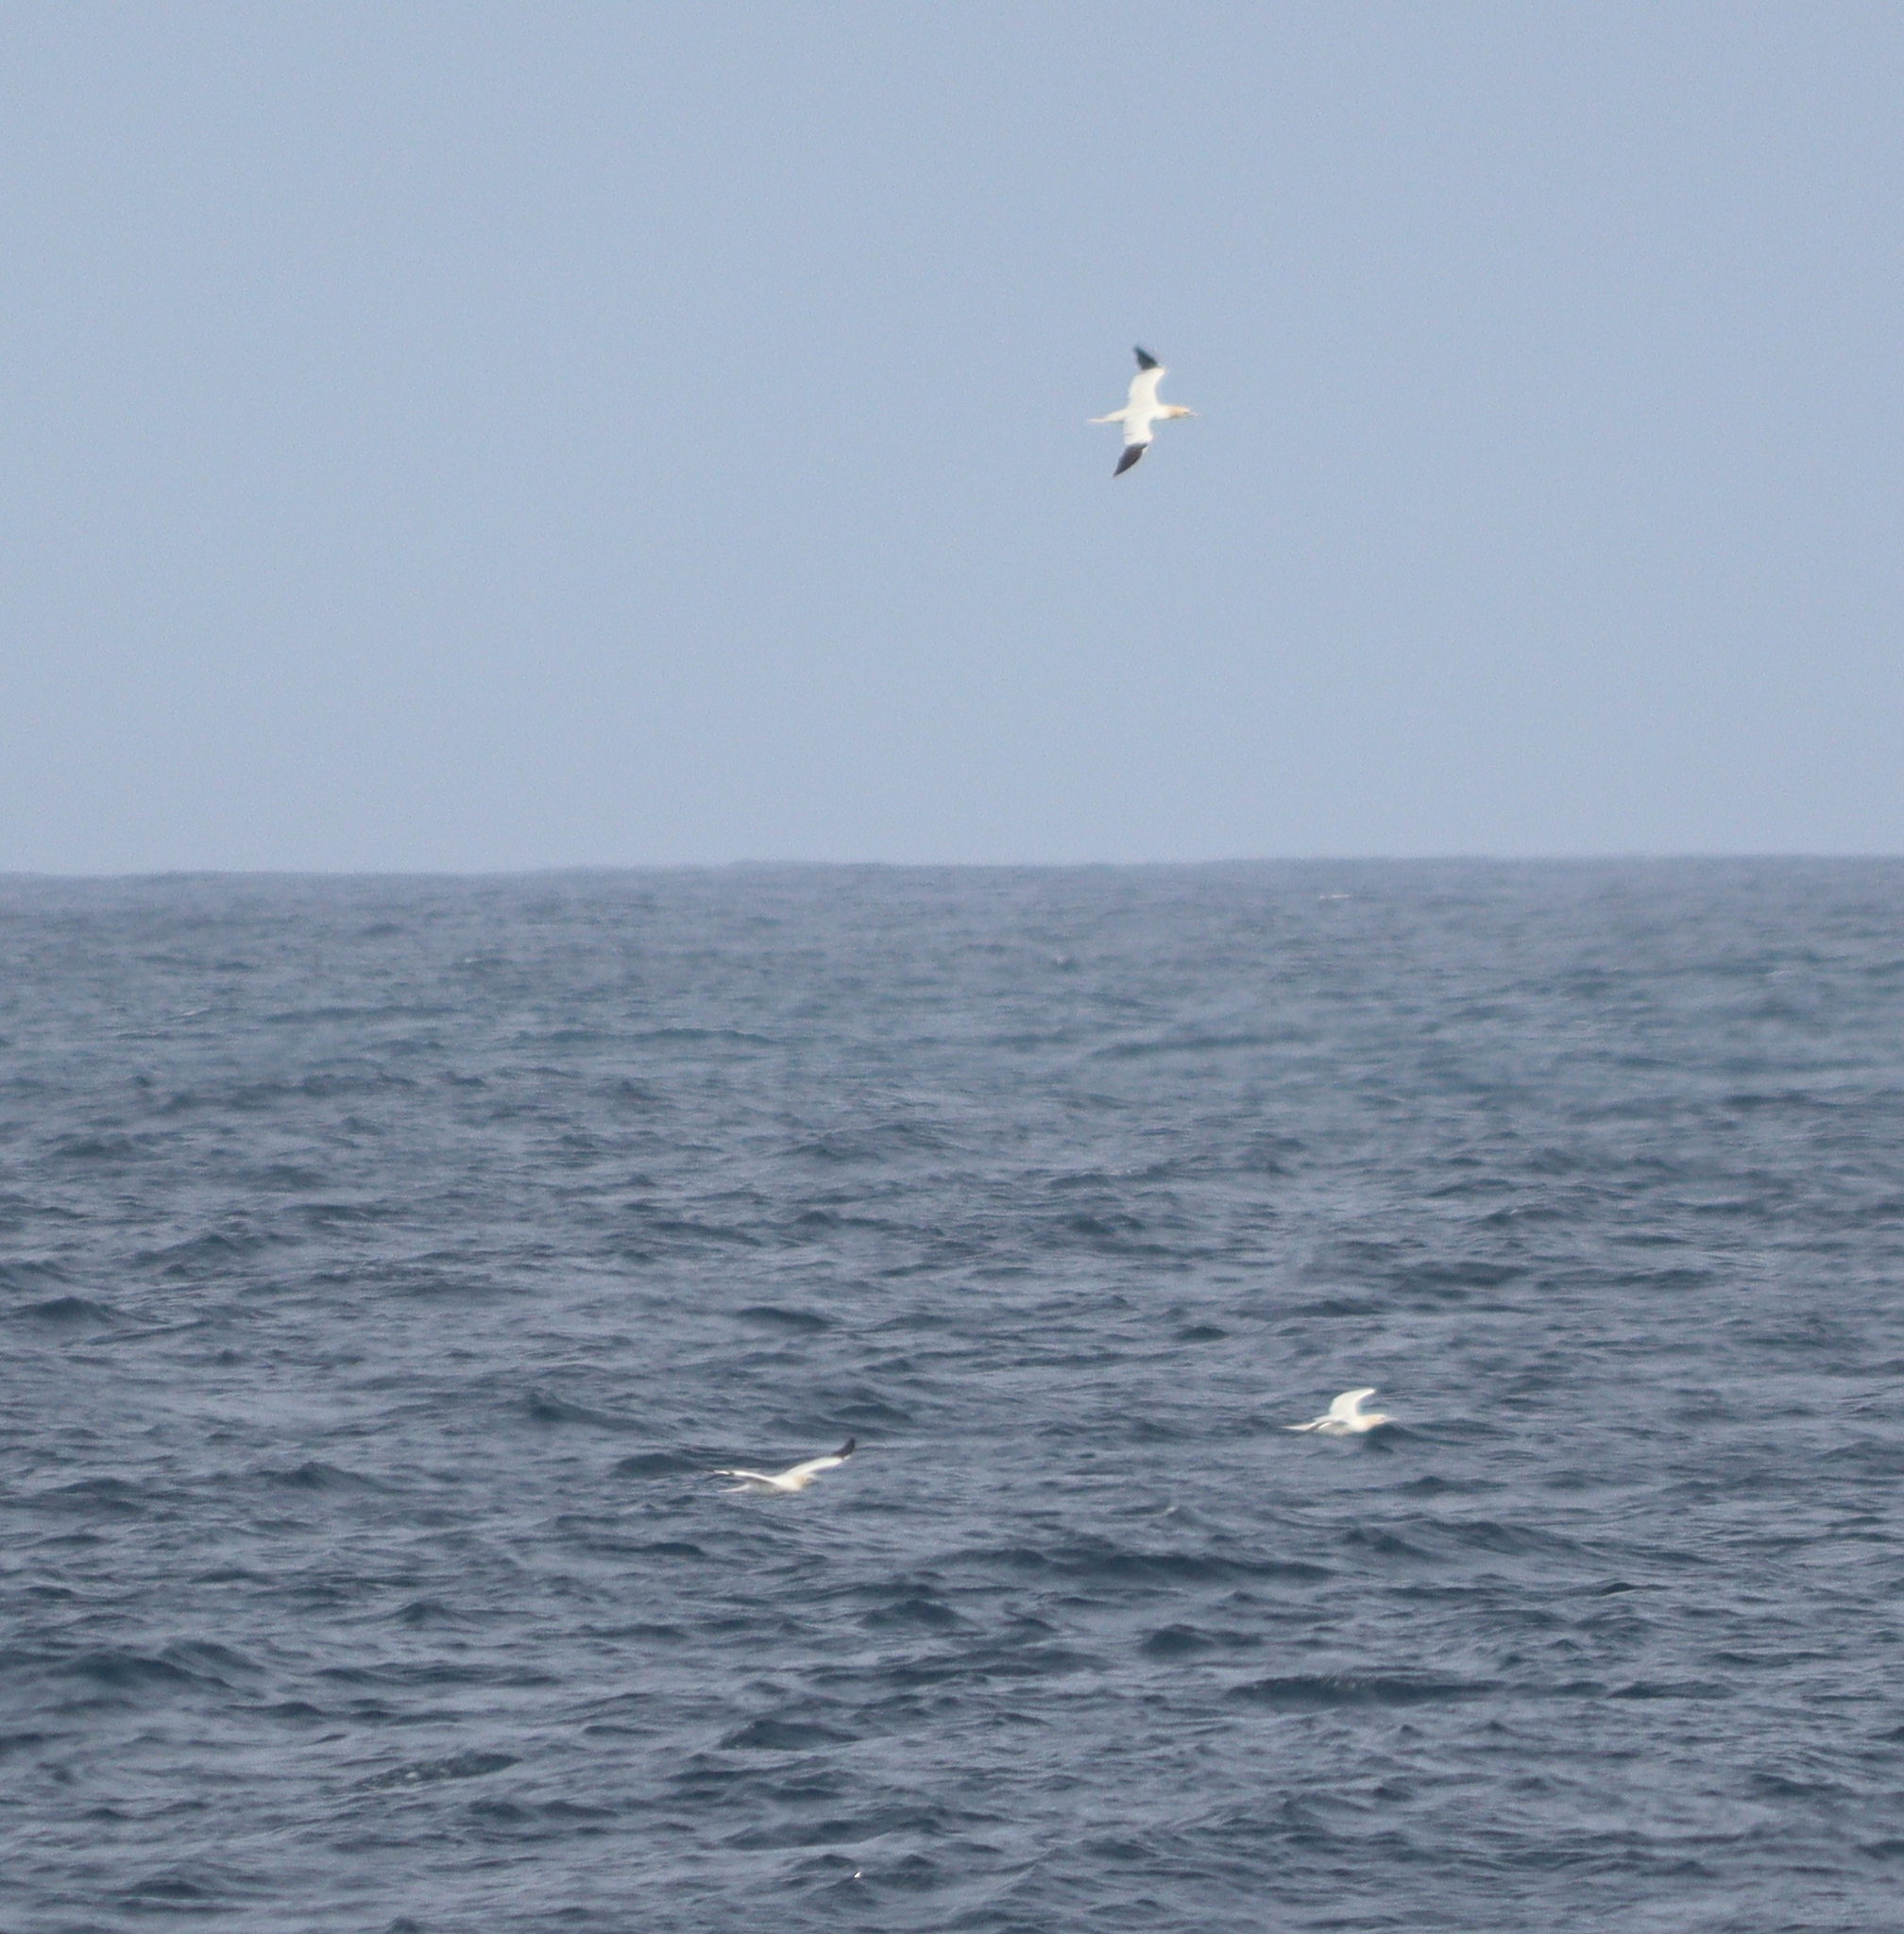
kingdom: Animalia
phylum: Chordata
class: Aves
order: Suliformes
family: Sulidae
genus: Morus
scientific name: Morus bassanus
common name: Northern gannet
